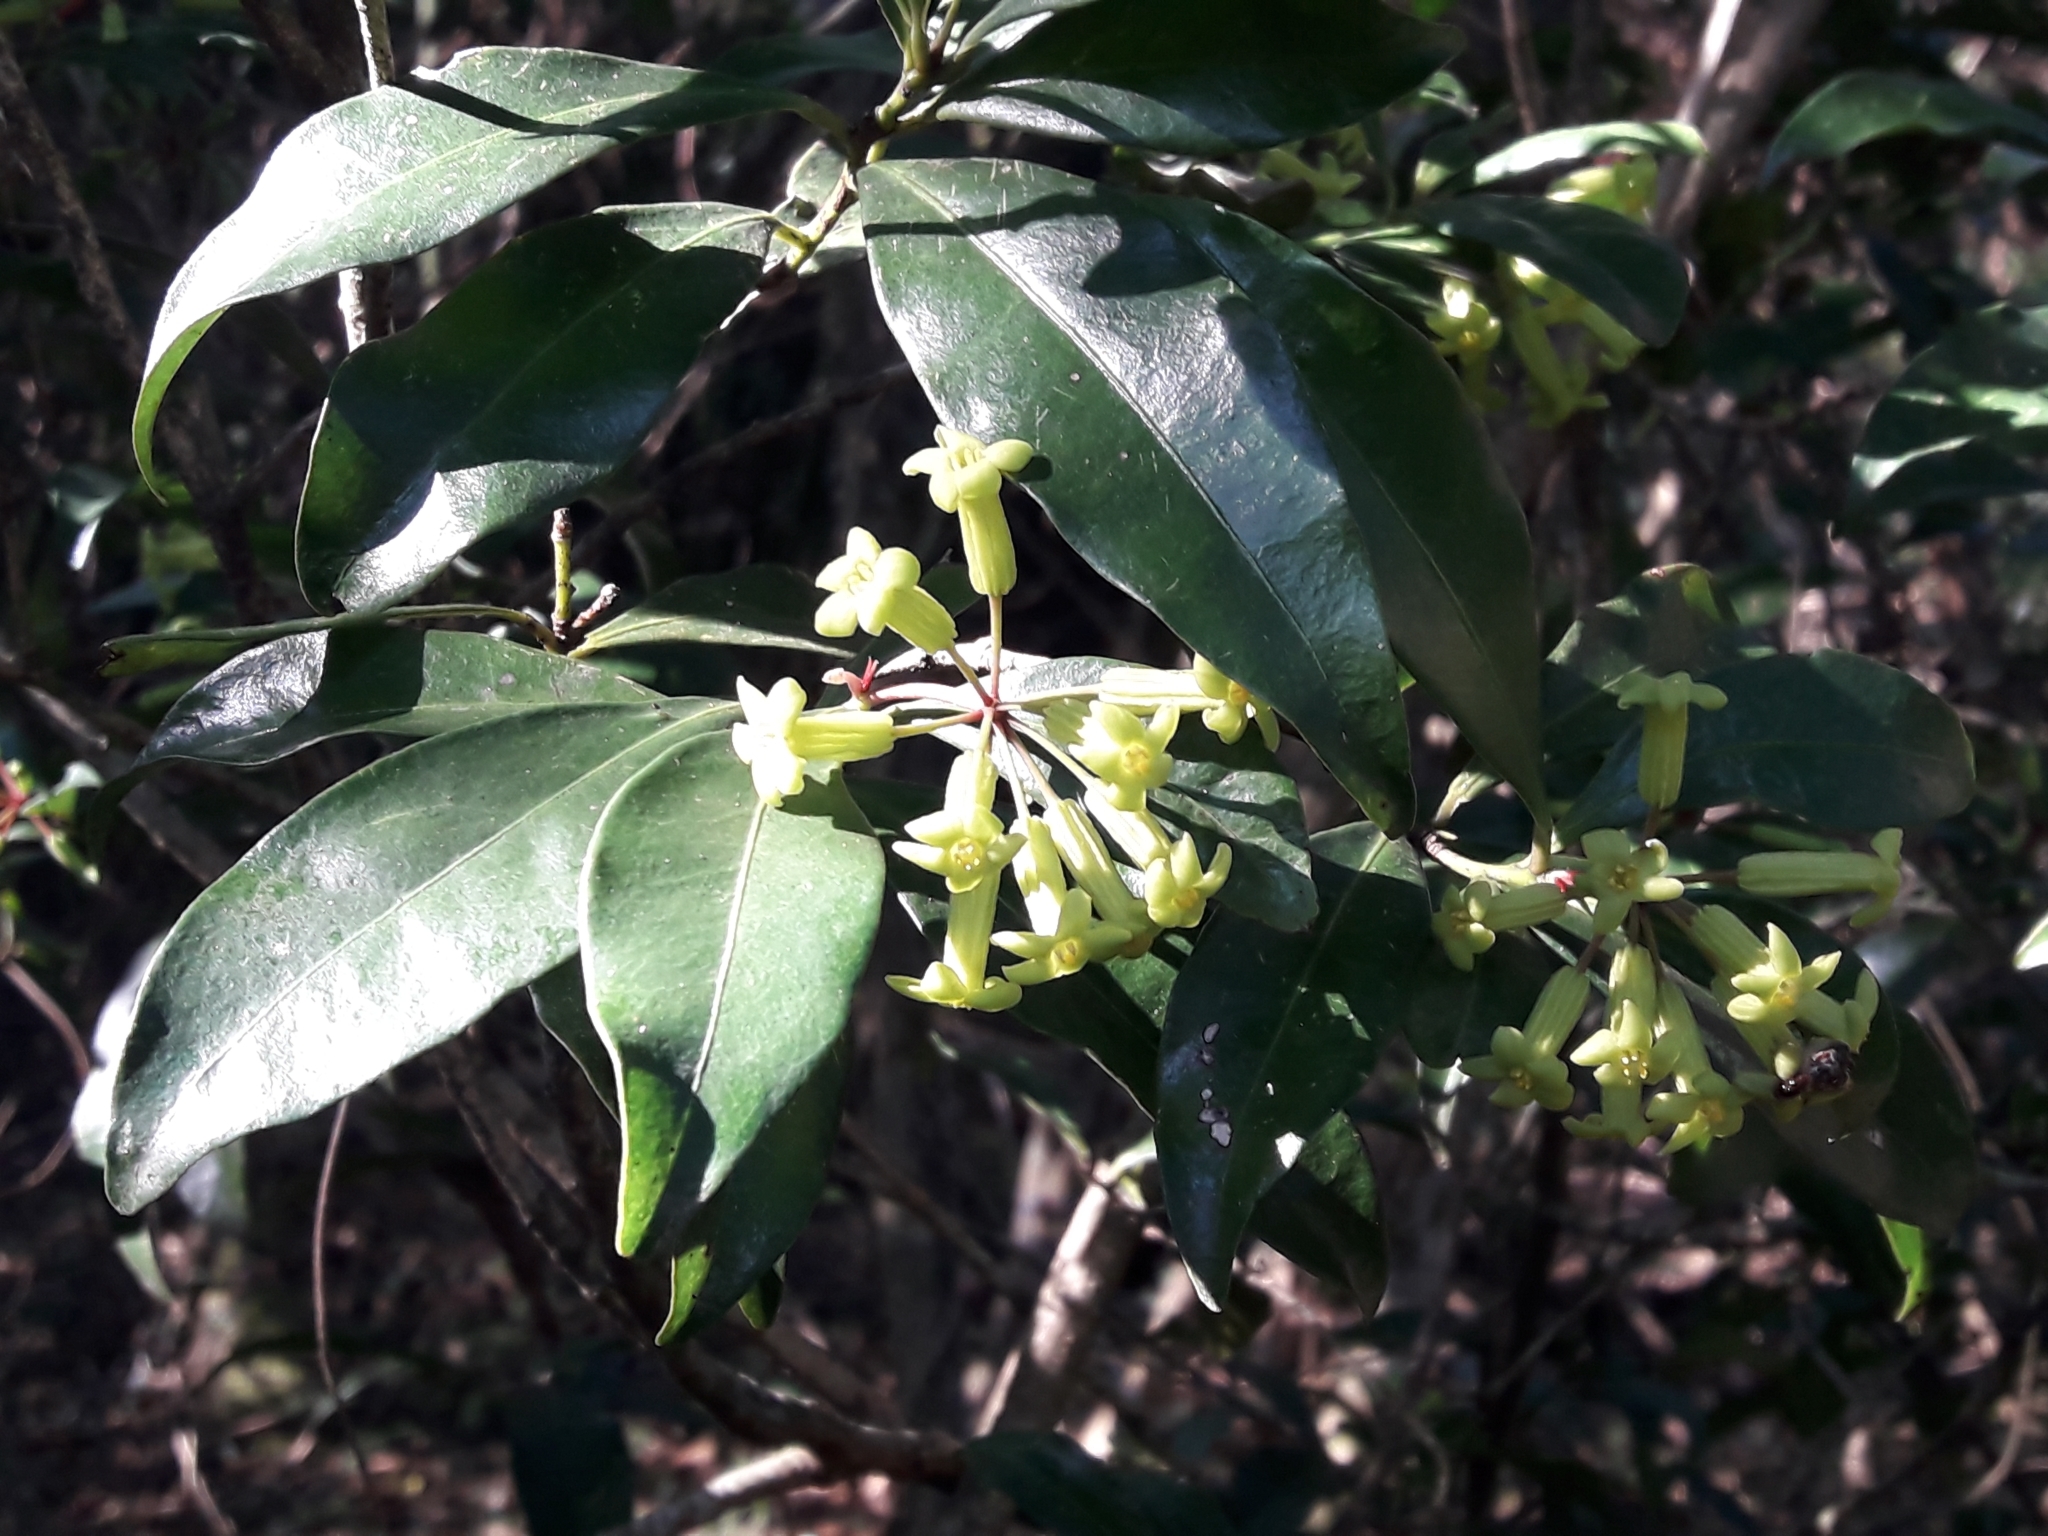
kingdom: Plantae
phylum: Tracheophyta
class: Magnoliopsida
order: Malvales
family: Thymelaeaceae
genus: Peddiea
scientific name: Peddiea africana
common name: Poison olive
